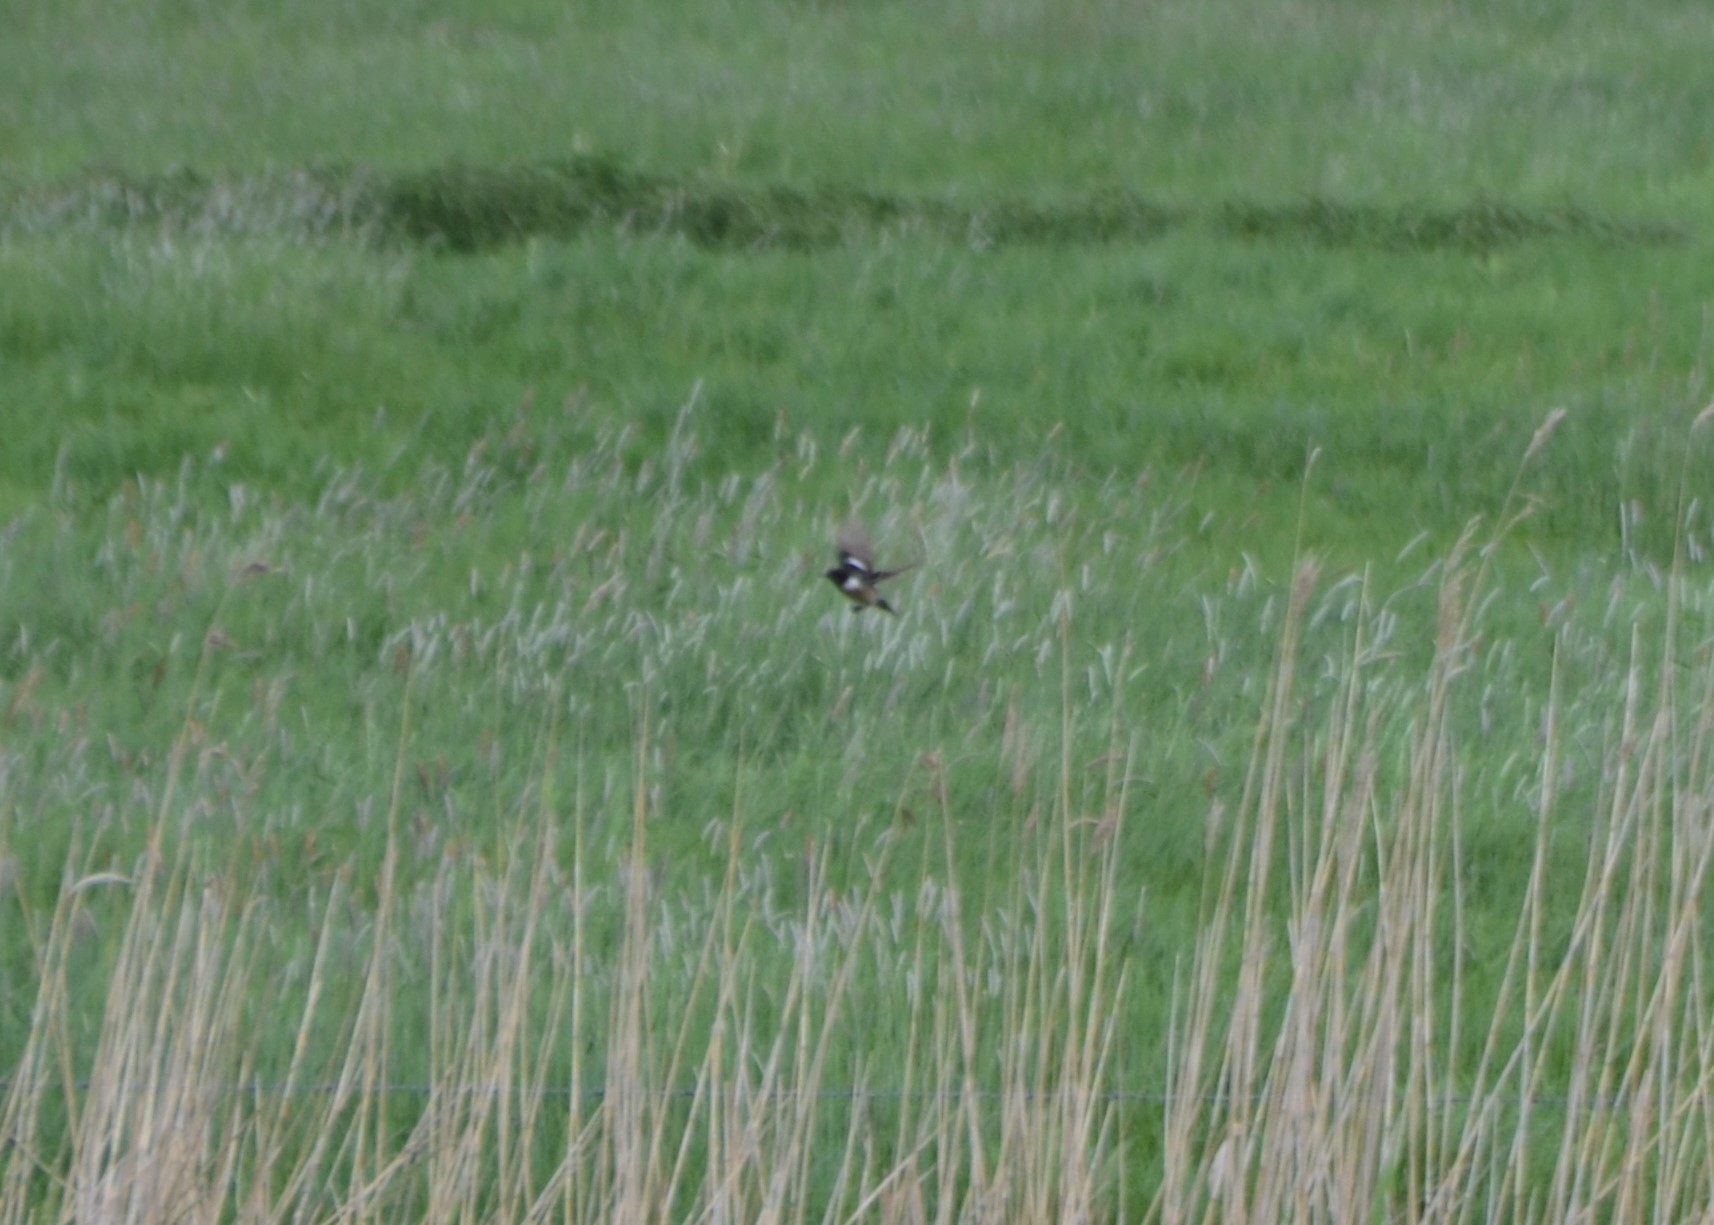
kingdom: Animalia
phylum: Chordata
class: Aves
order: Passeriformes
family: Muscicapidae
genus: Saxicola
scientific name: Saxicola rubicola
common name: European stonechat
